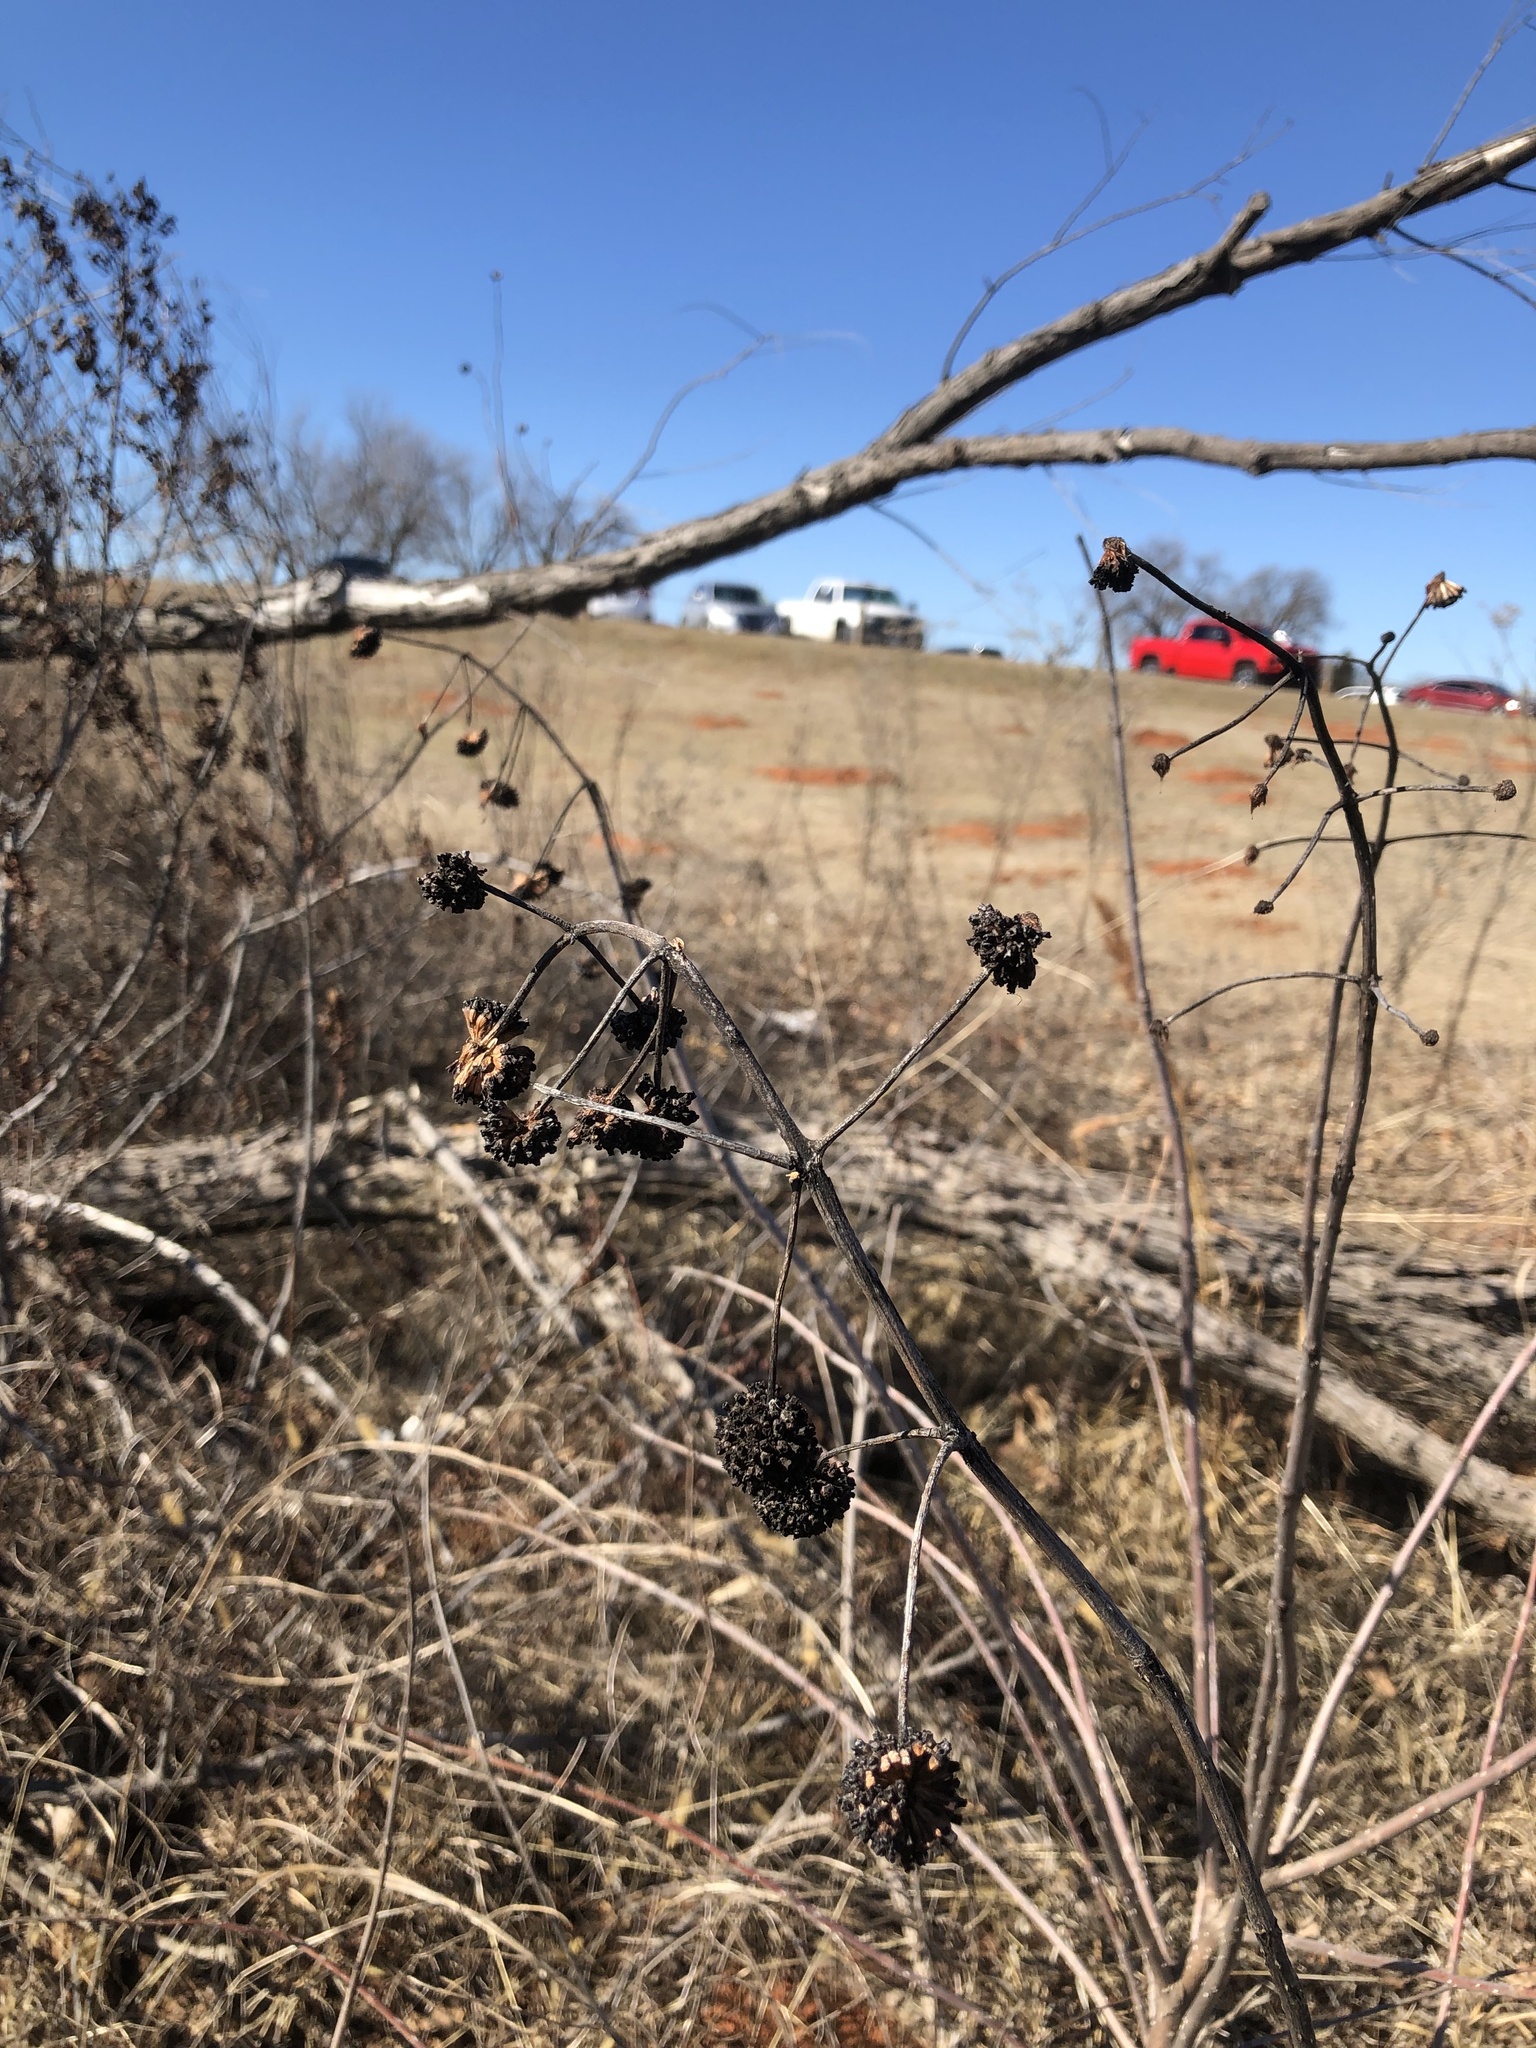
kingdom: Plantae
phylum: Tracheophyta
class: Magnoliopsida
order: Gentianales
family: Rubiaceae
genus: Cephalanthus
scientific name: Cephalanthus occidentalis
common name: Button-willow
